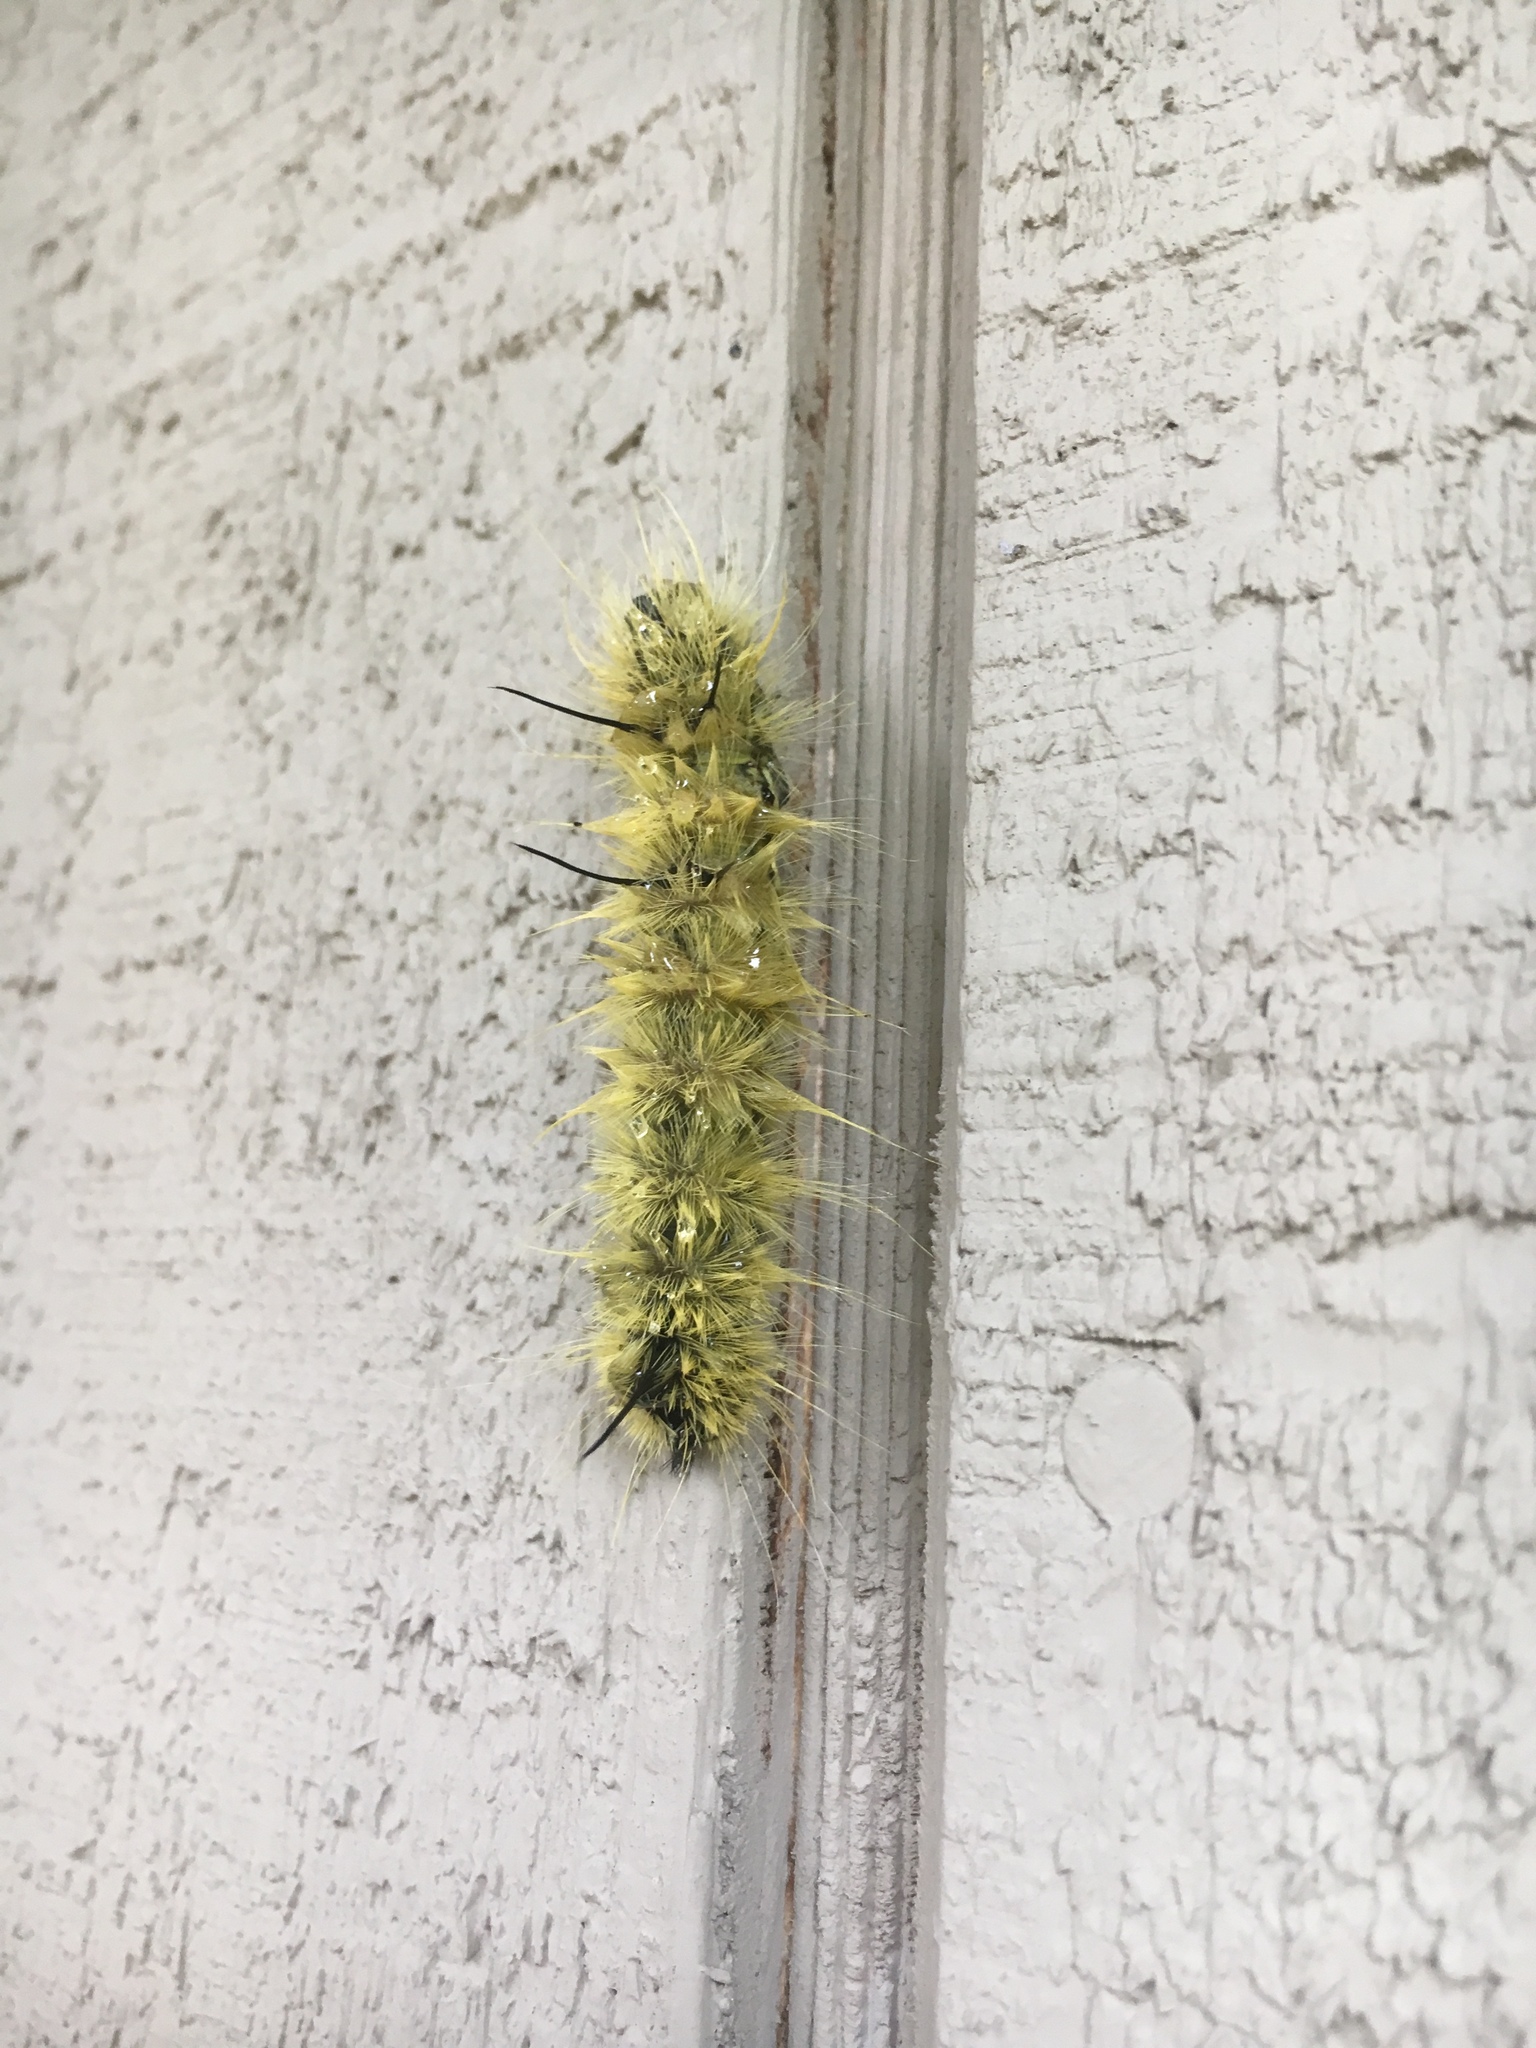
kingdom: Animalia
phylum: Arthropoda
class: Insecta
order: Lepidoptera
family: Noctuidae
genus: Acronicta
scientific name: Acronicta americana
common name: American dagger
